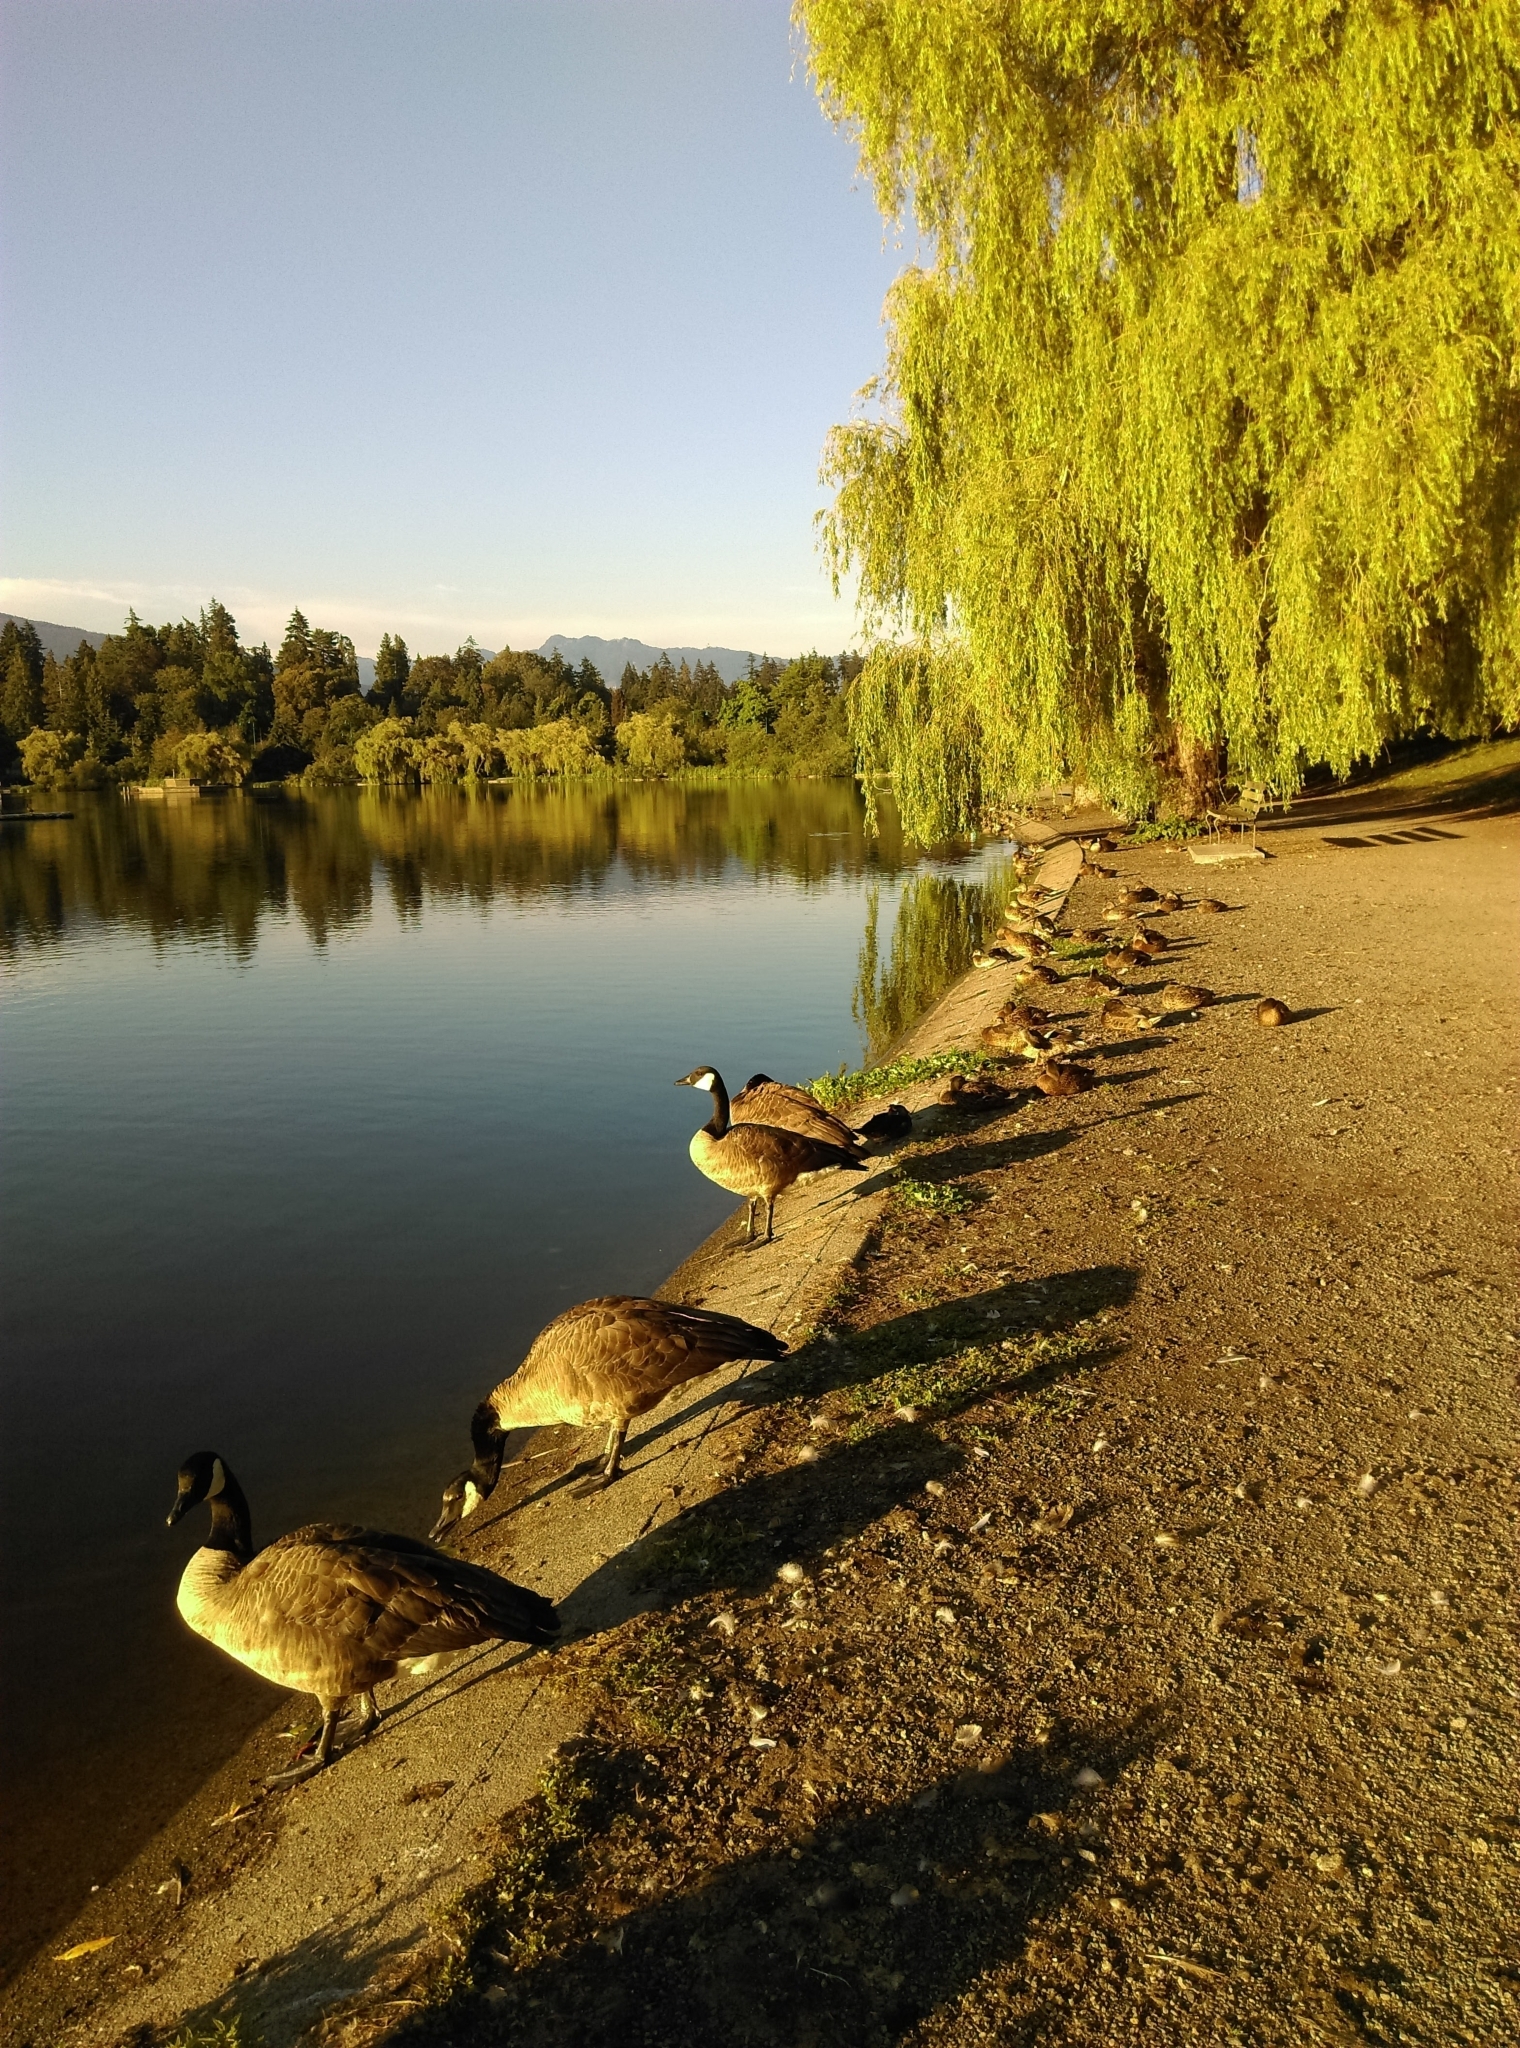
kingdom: Animalia
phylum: Chordata
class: Aves
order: Anseriformes
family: Anatidae
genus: Branta
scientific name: Branta canadensis
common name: Canada goose
